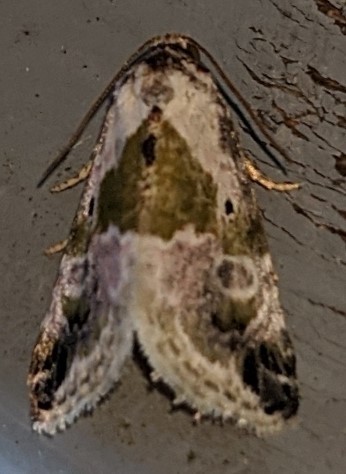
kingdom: Animalia
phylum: Arthropoda
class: Insecta
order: Lepidoptera
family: Noctuidae
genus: Maliattha
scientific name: Maliattha synochitis
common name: Black-dotted glyph
